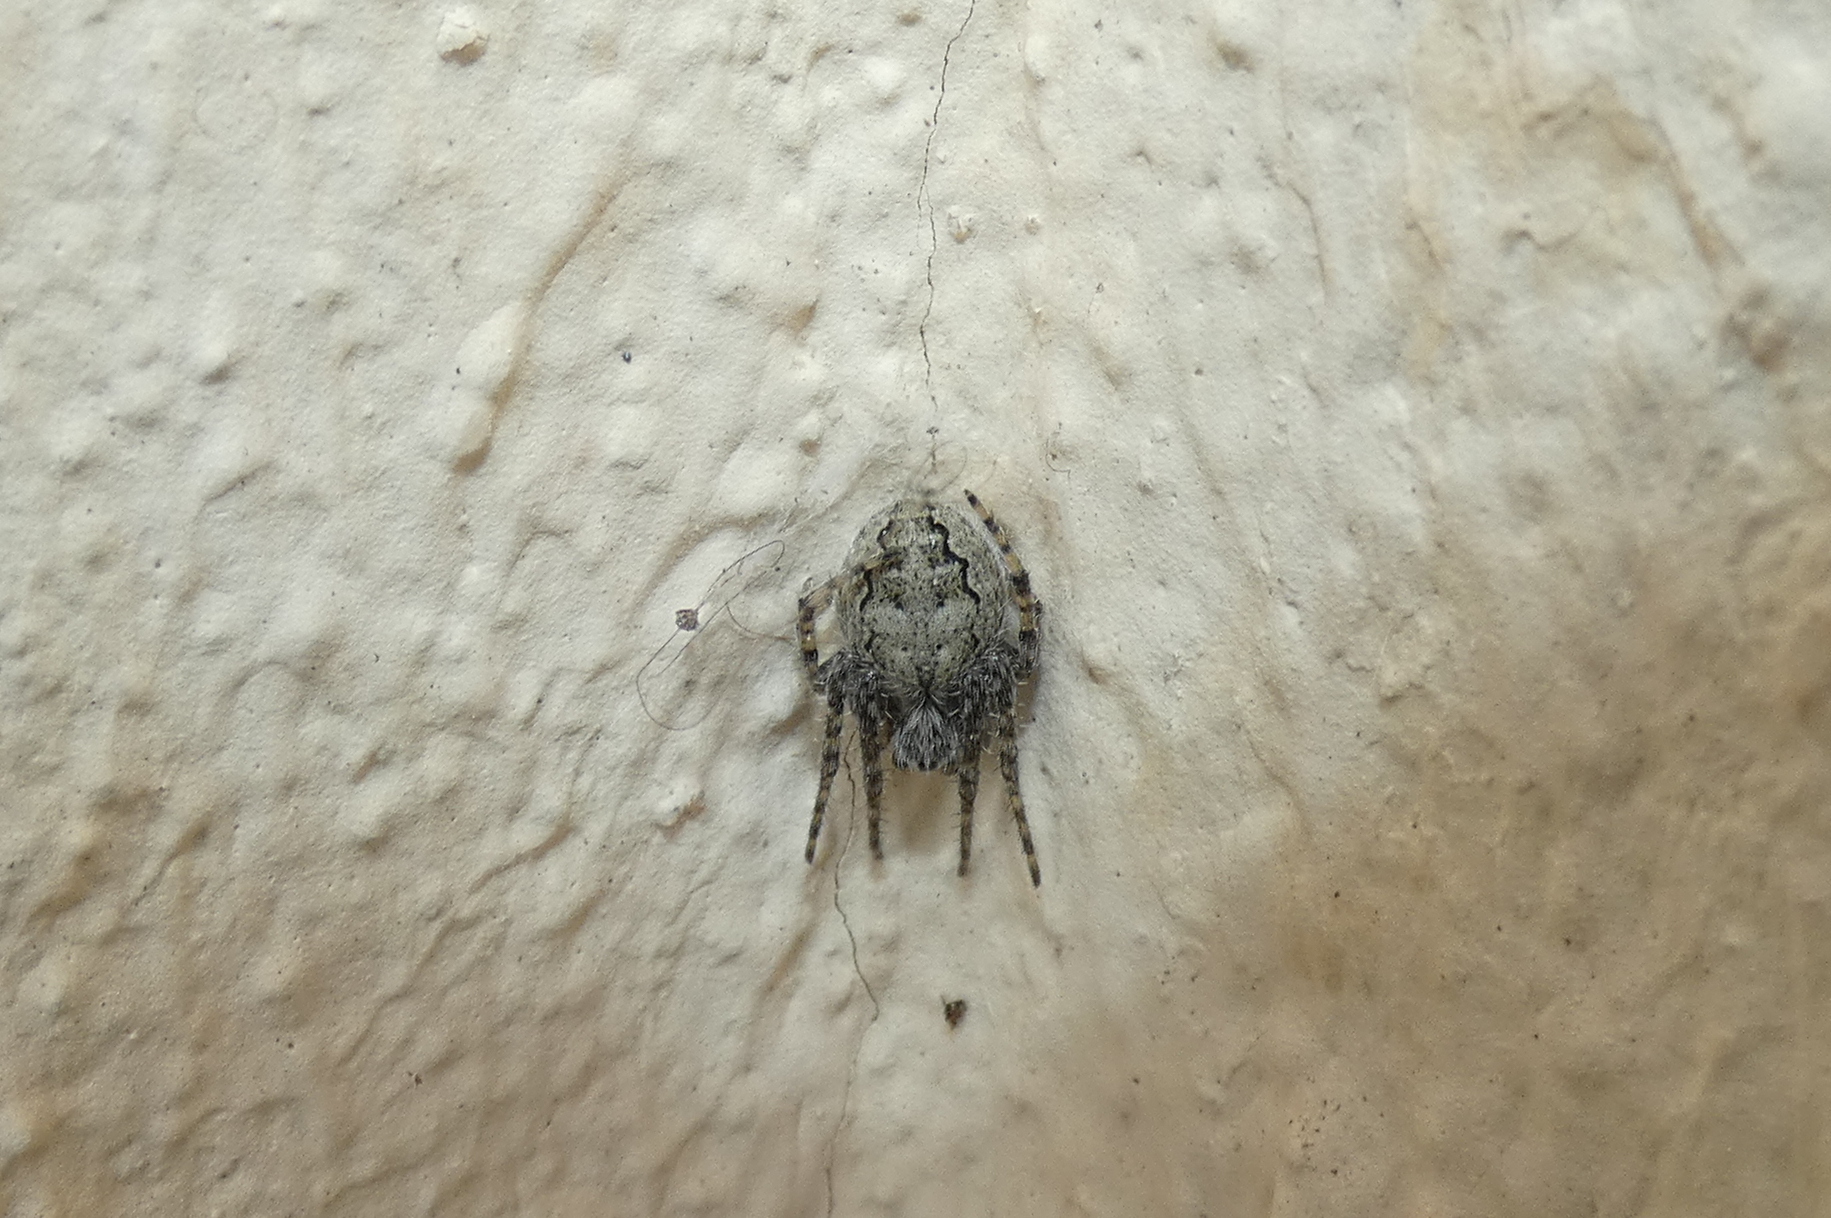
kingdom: Animalia
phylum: Arthropoda
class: Arachnida
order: Araneae
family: Araneidae
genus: Larinioides
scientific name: Larinioides ixobolus
